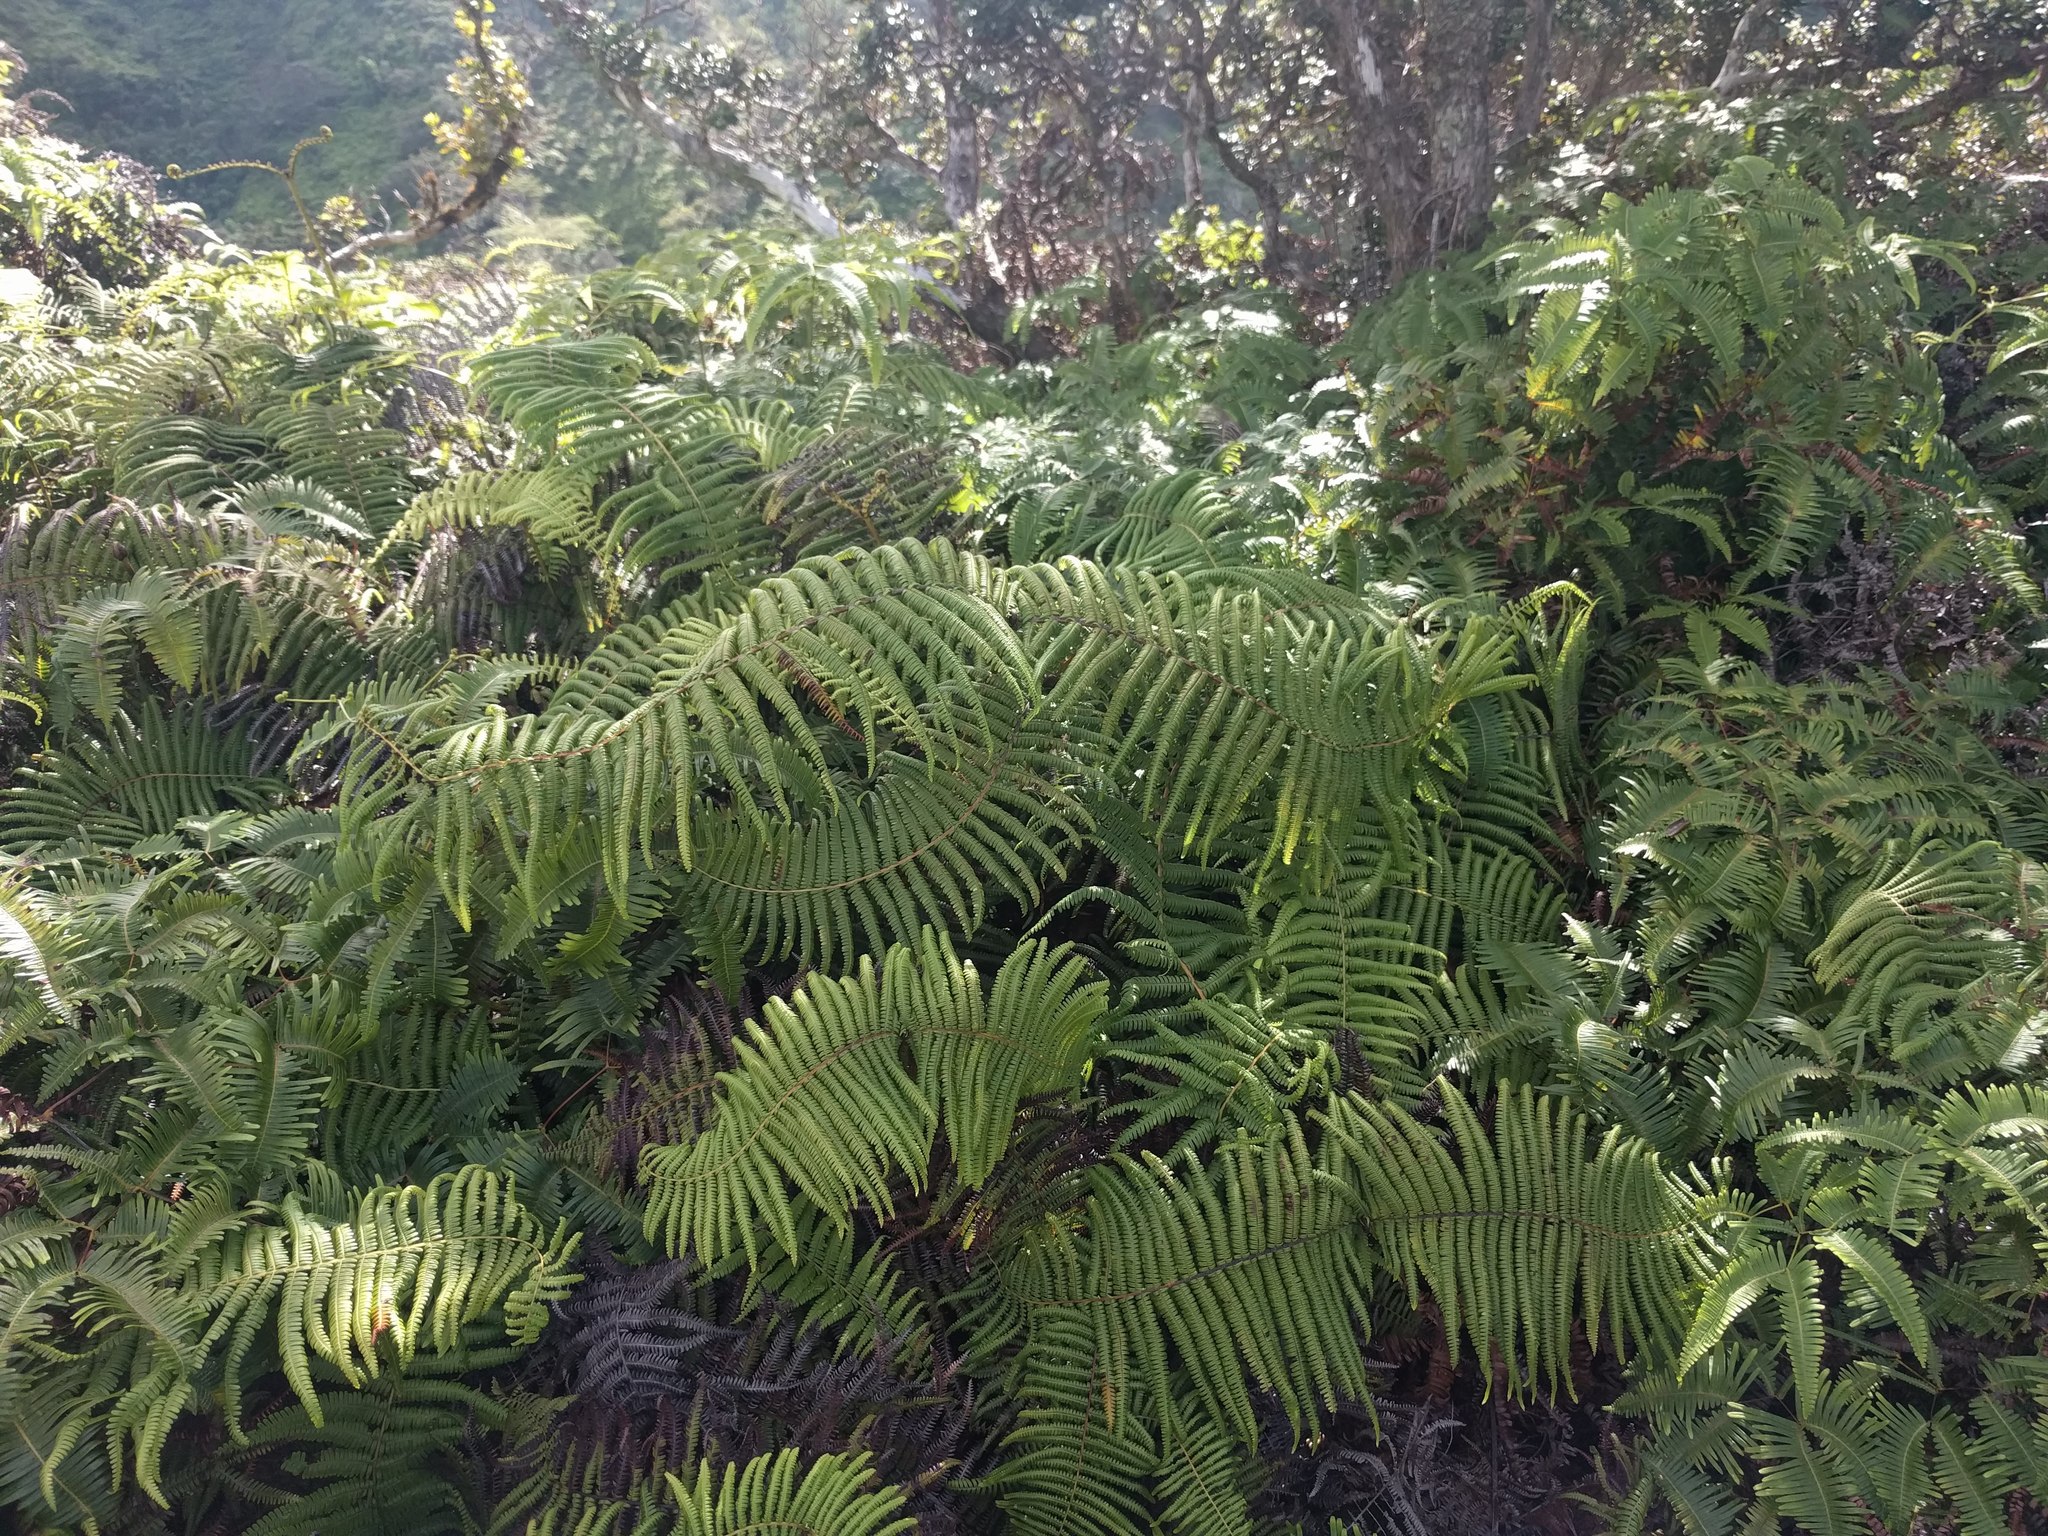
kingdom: Plantae
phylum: Tracheophyta
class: Polypodiopsida
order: Gleicheniales
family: Gleicheniaceae
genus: Diplopterygium
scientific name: Diplopterygium pinnatum
